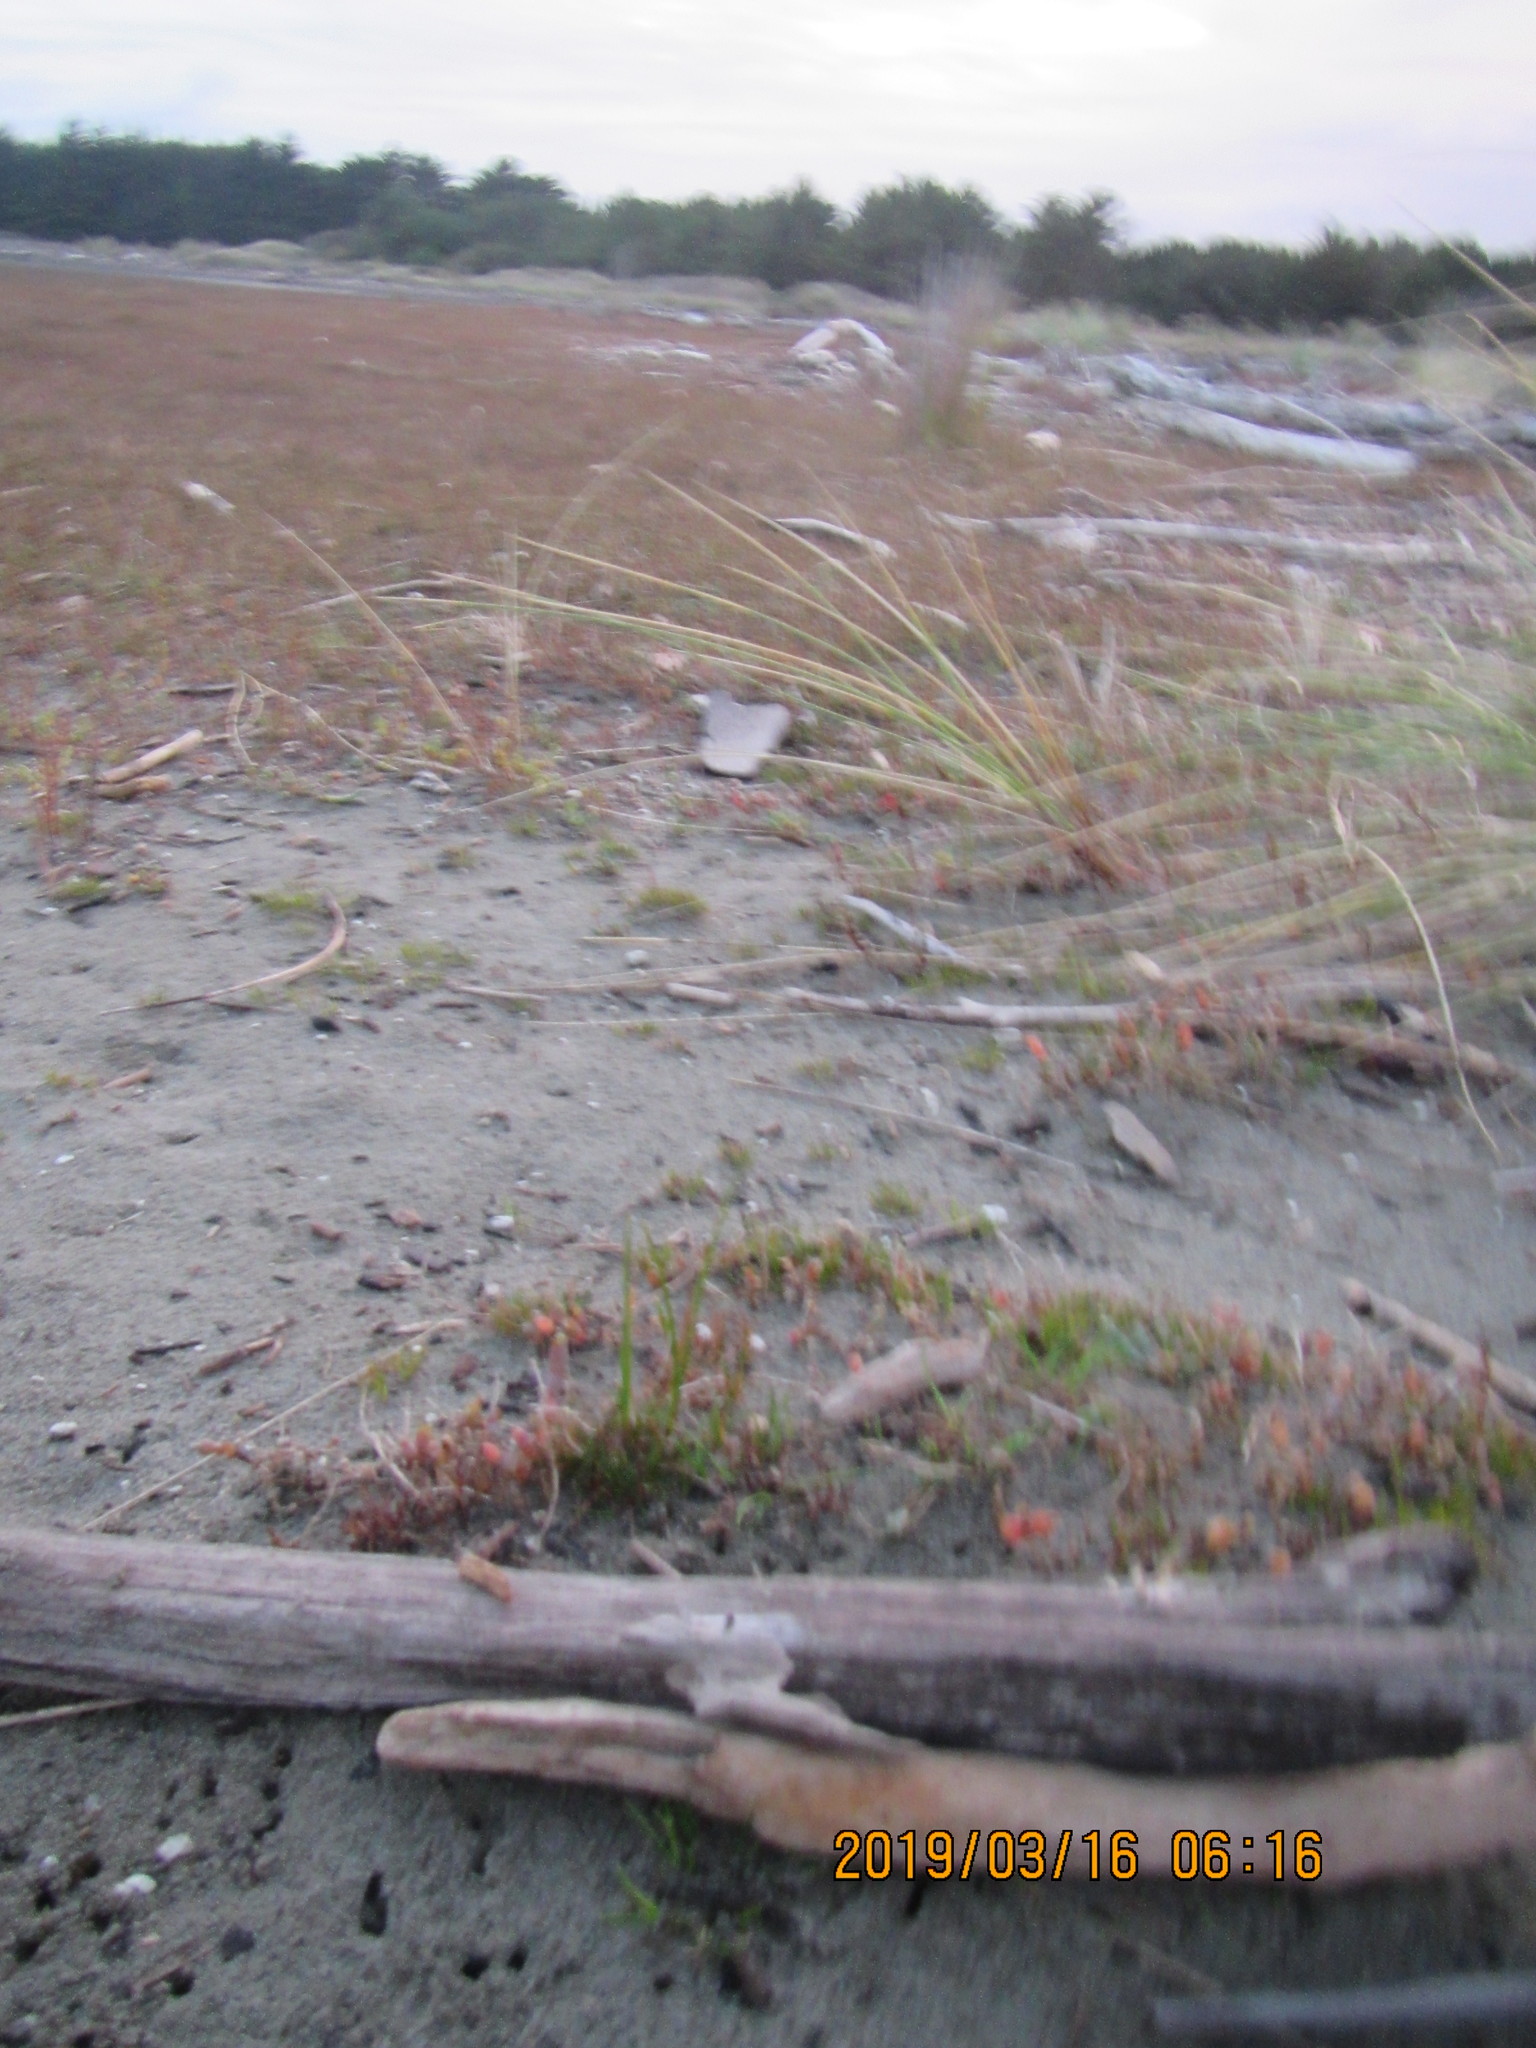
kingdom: Animalia
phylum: Arthropoda
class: Arachnida
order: Araneae
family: Lycosidae
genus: Anoteropsis
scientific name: Anoteropsis litoralis
